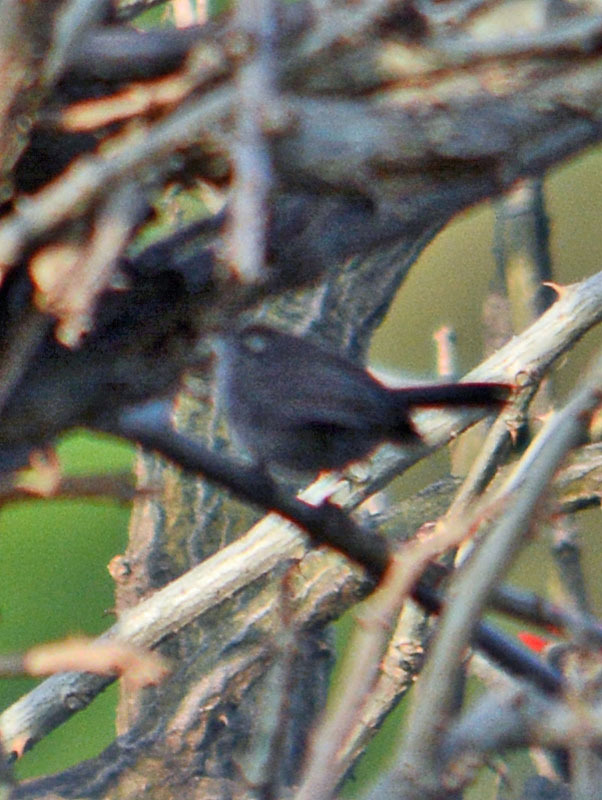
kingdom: Animalia
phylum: Chordata
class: Aves
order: Passeriformes
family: Troglodytidae
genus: Thryomanes
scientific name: Thryomanes bewickii
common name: Bewick's wren
